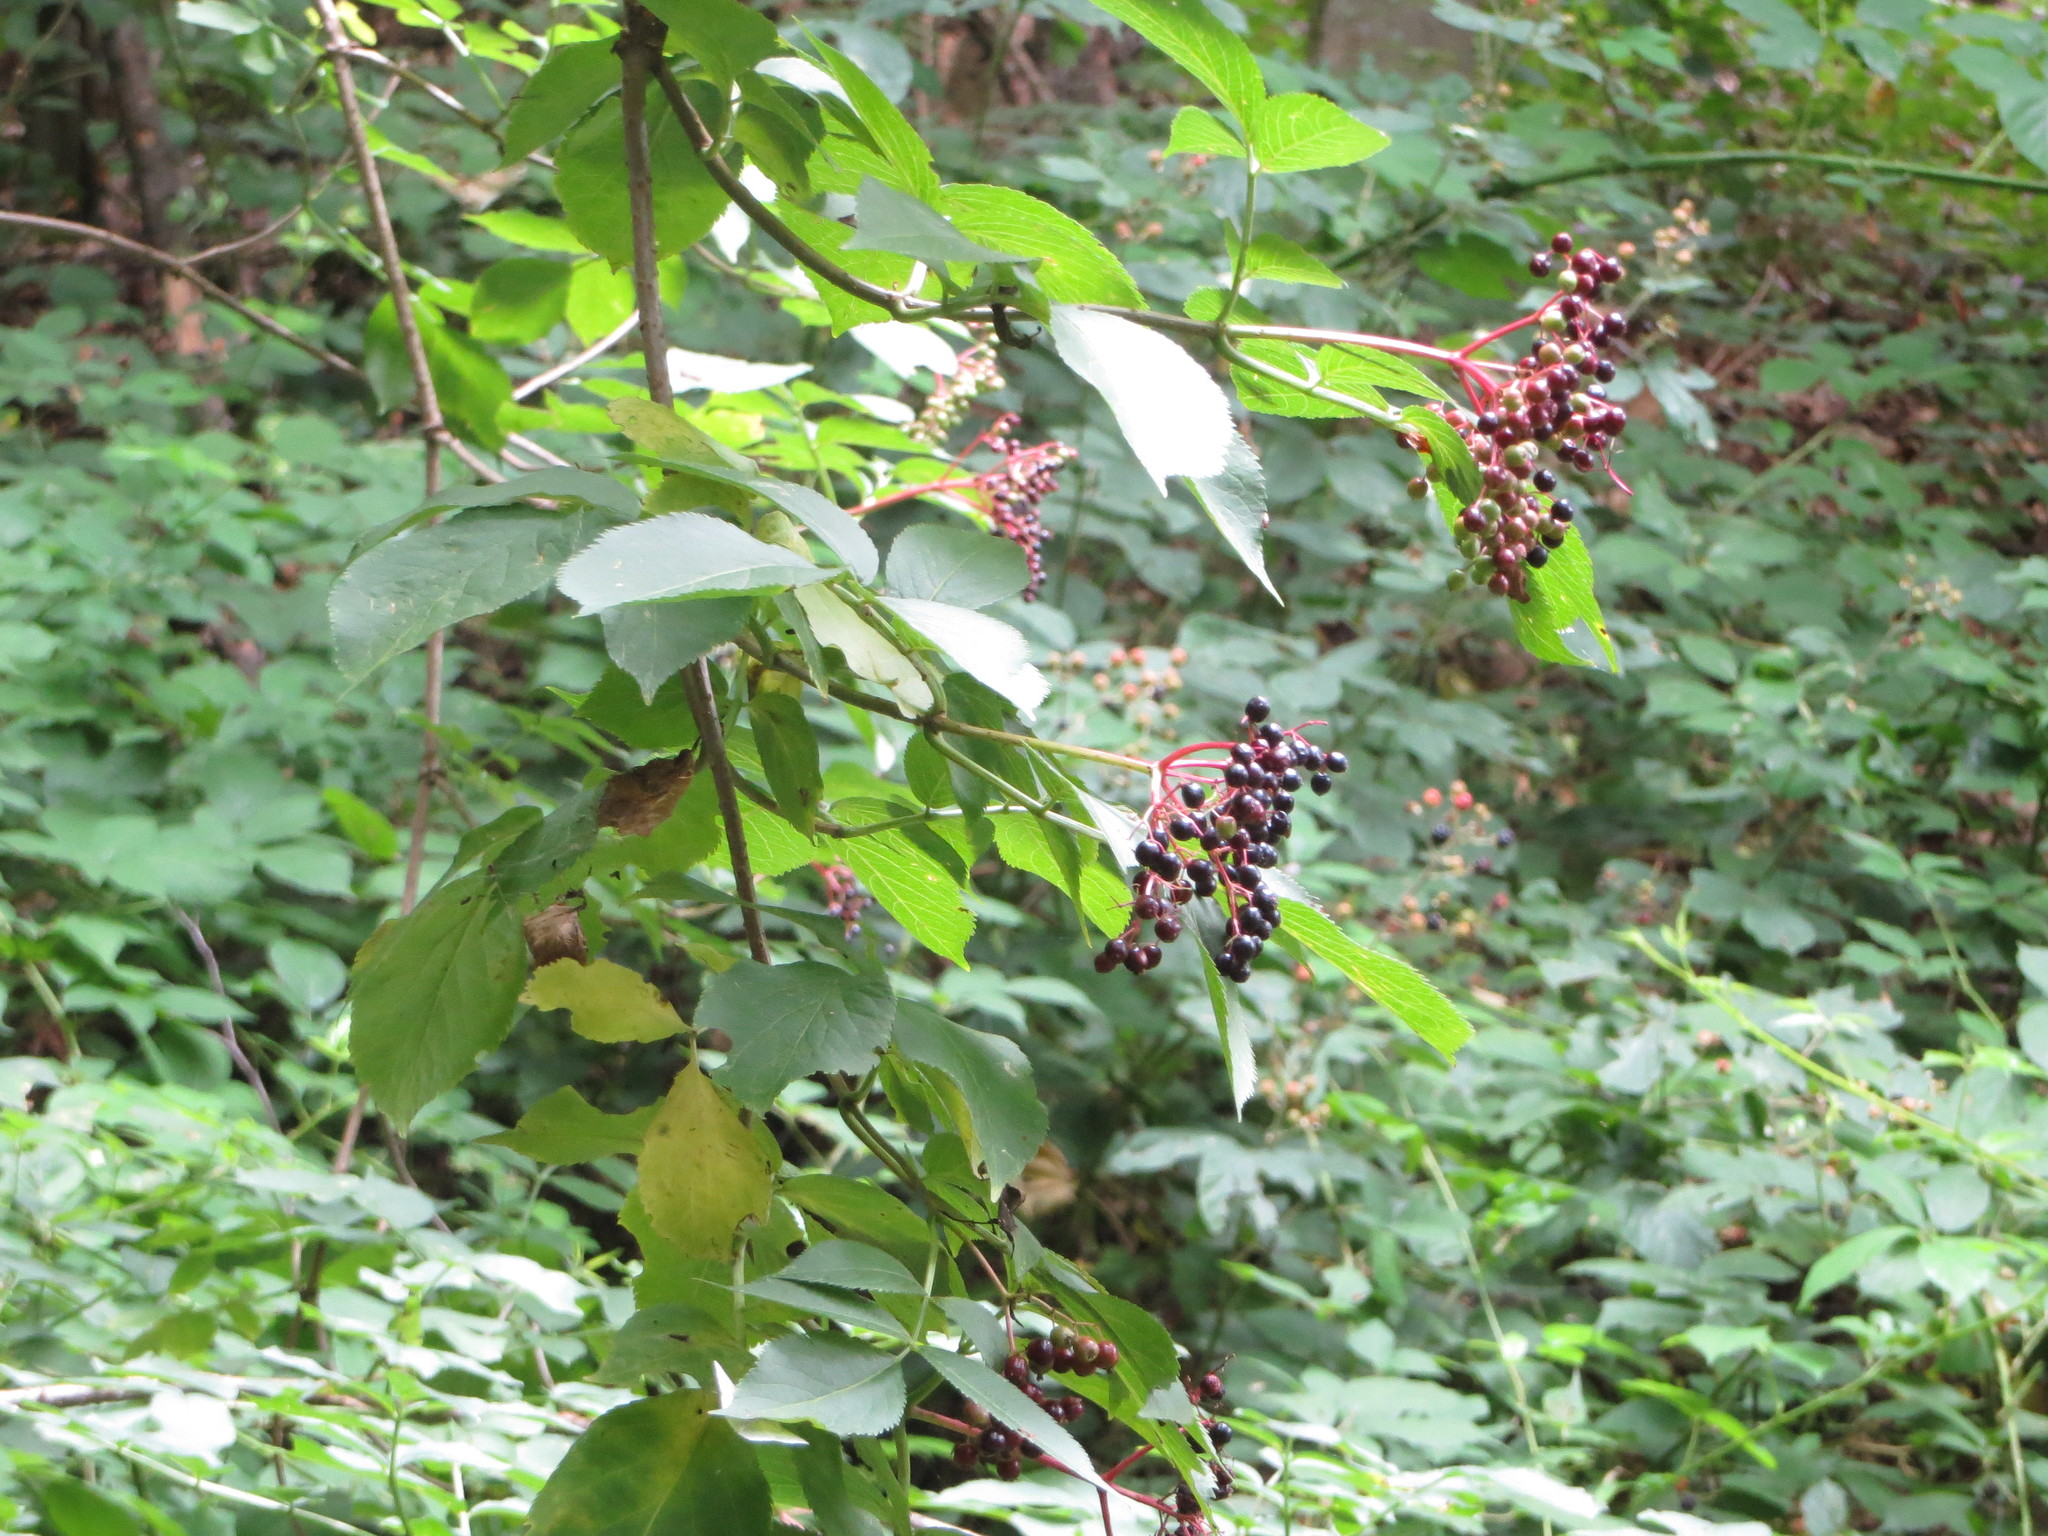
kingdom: Plantae
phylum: Tracheophyta
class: Magnoliopsida
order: Dipsacales
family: Viburnaceae
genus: Sambucus
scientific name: Sambucus nigra
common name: Elder
